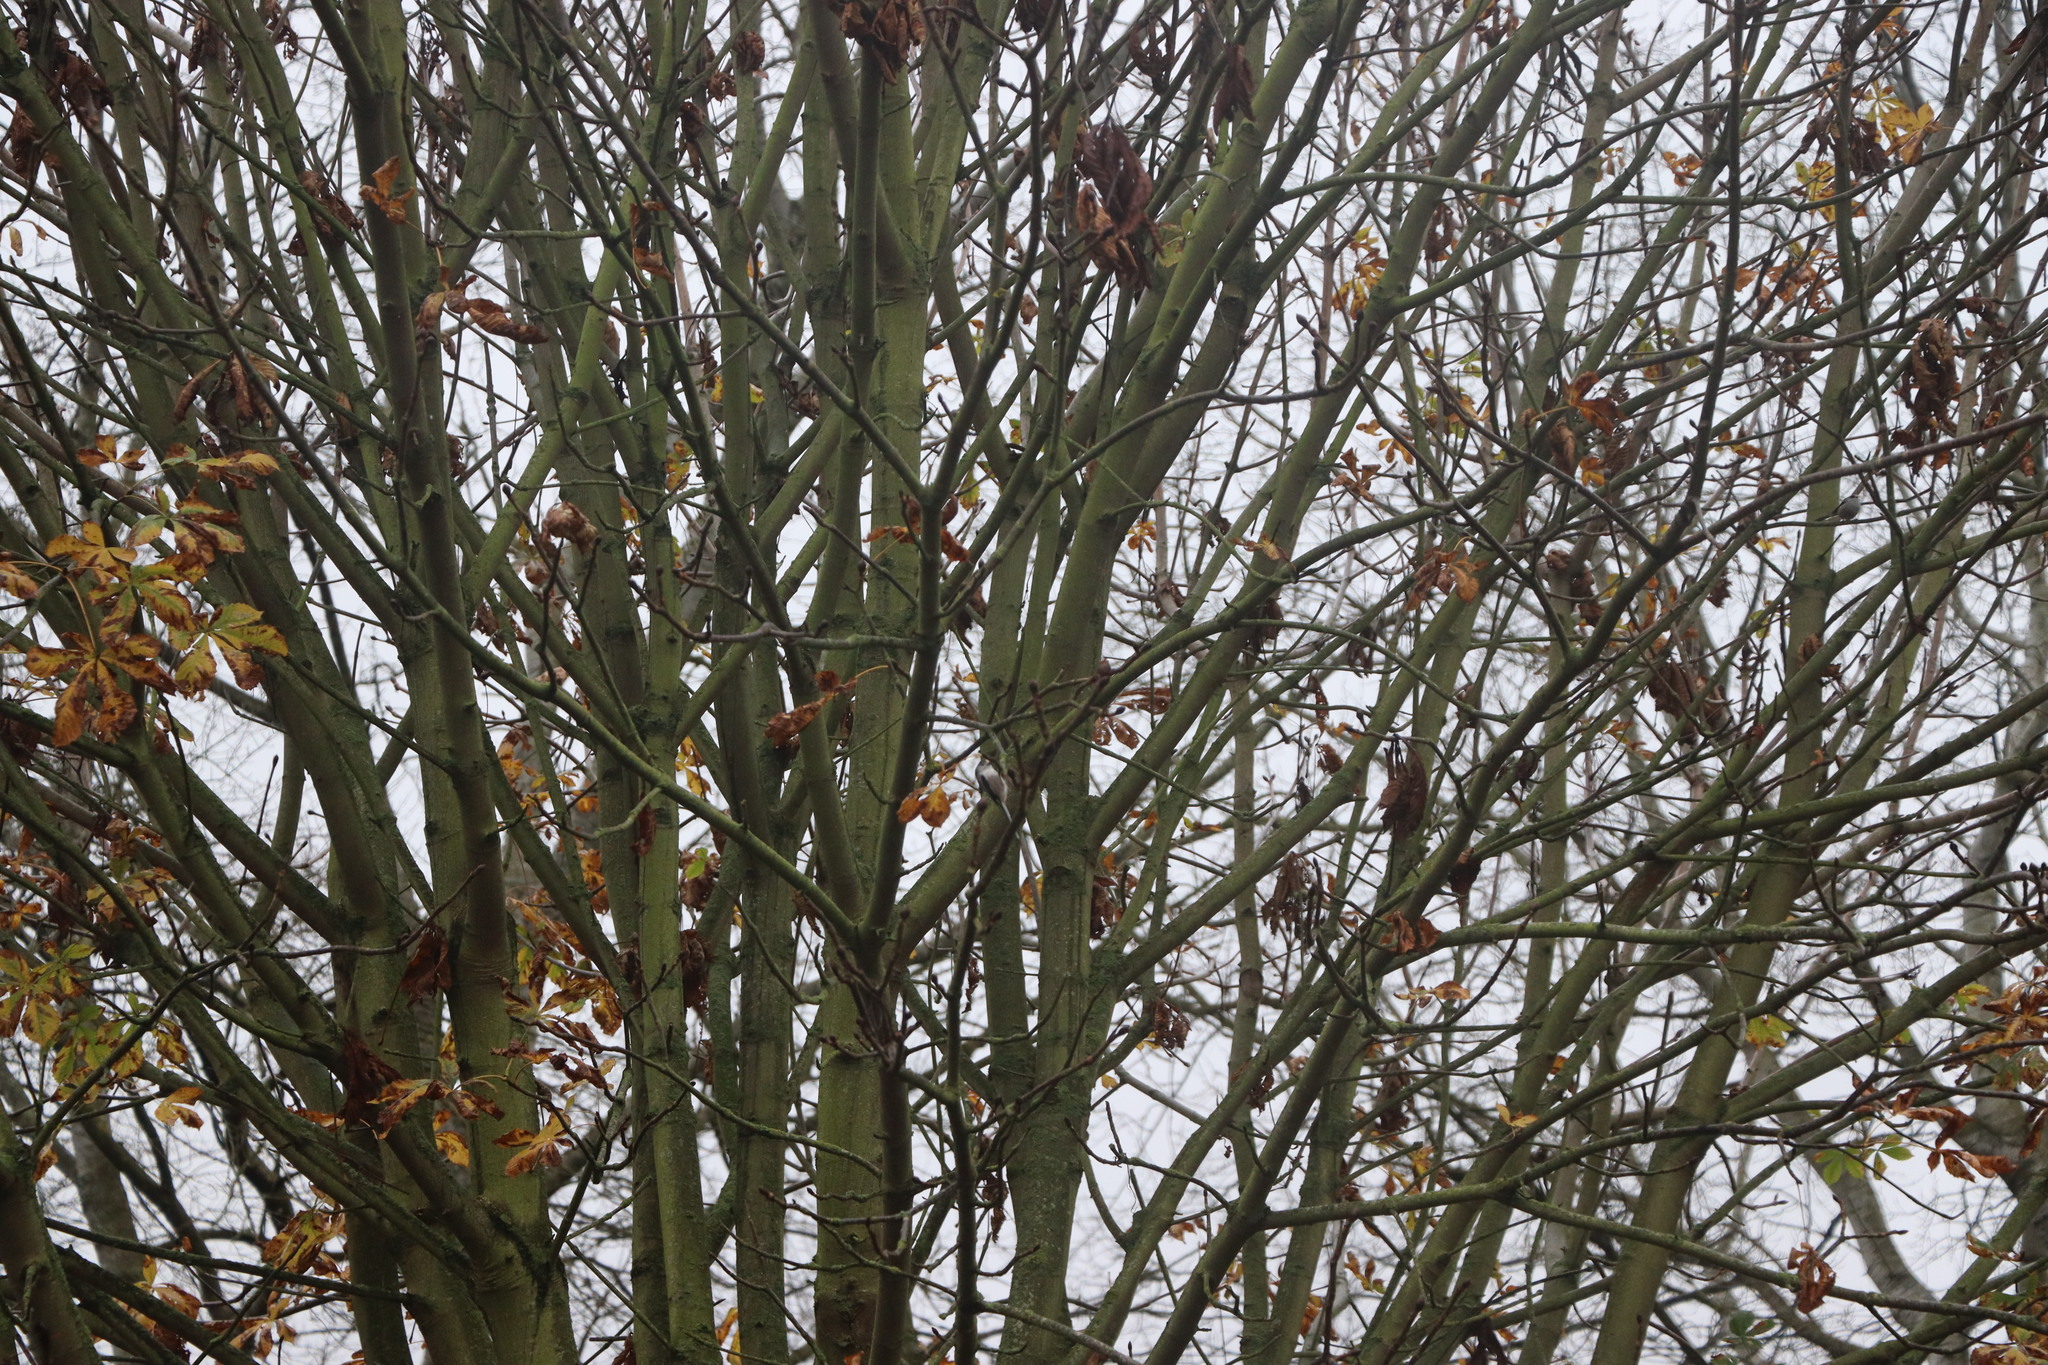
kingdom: Animalia
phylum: Chordata
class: Aves
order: Passeriformes
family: Aegithalidae
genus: Aegithalos
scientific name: Aegithalos caudatus
